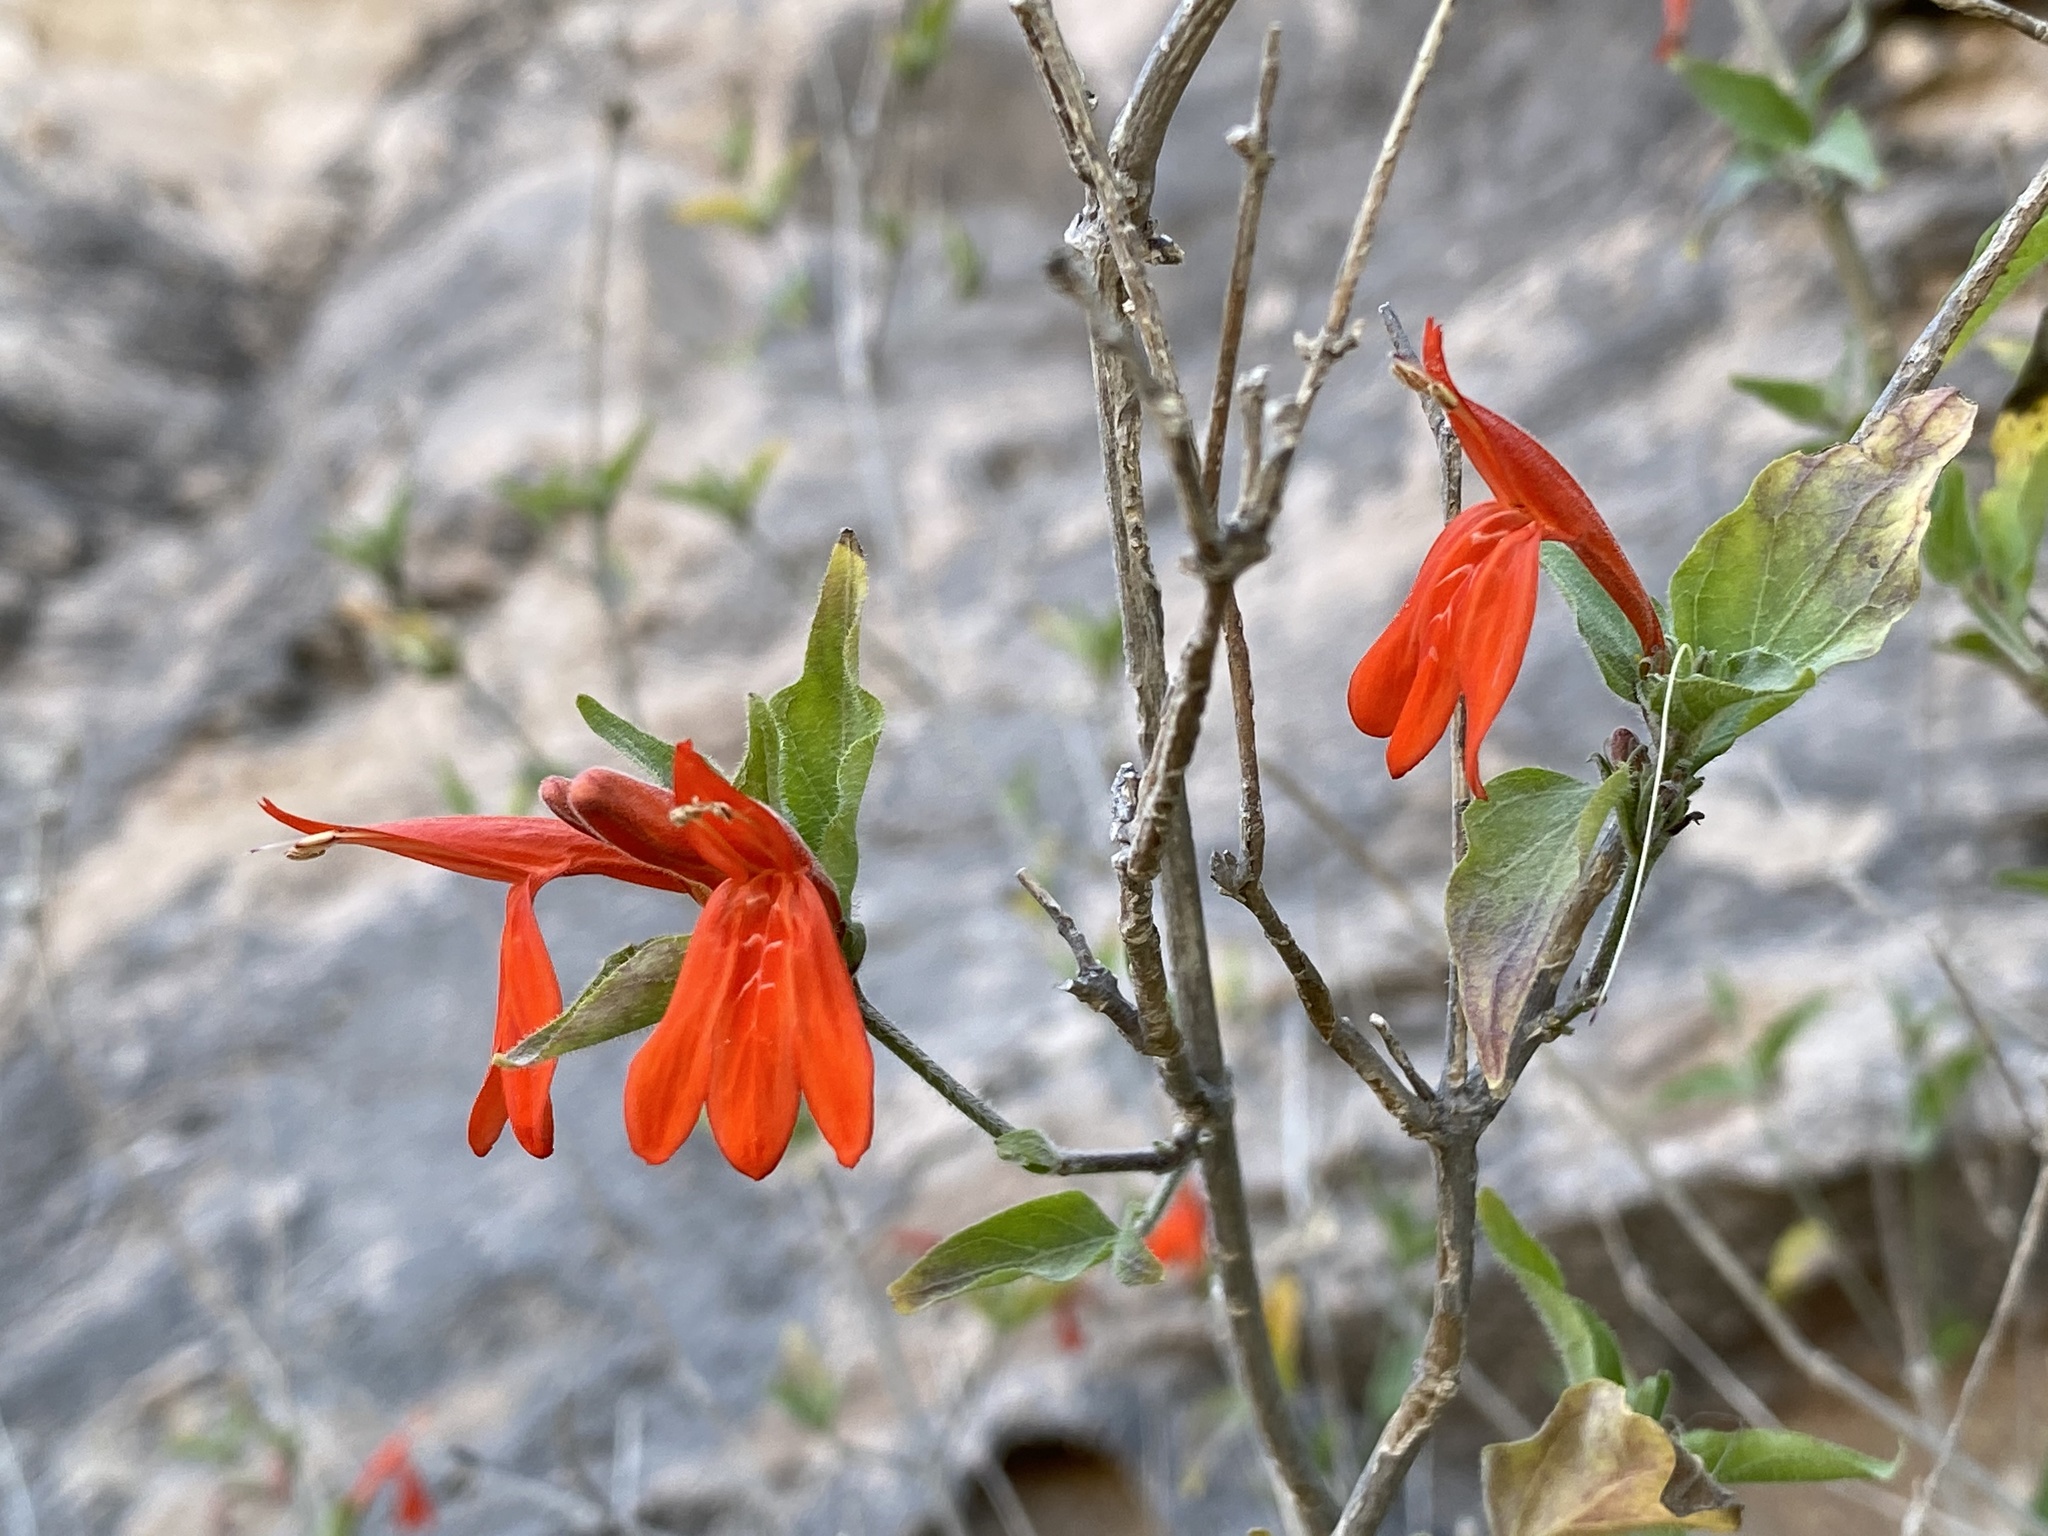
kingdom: Plantae
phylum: Tracheophyta
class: Magnoliopsida
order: Lamiales
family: Acanthaceae
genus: Dianthera
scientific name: Dianthera candicans
